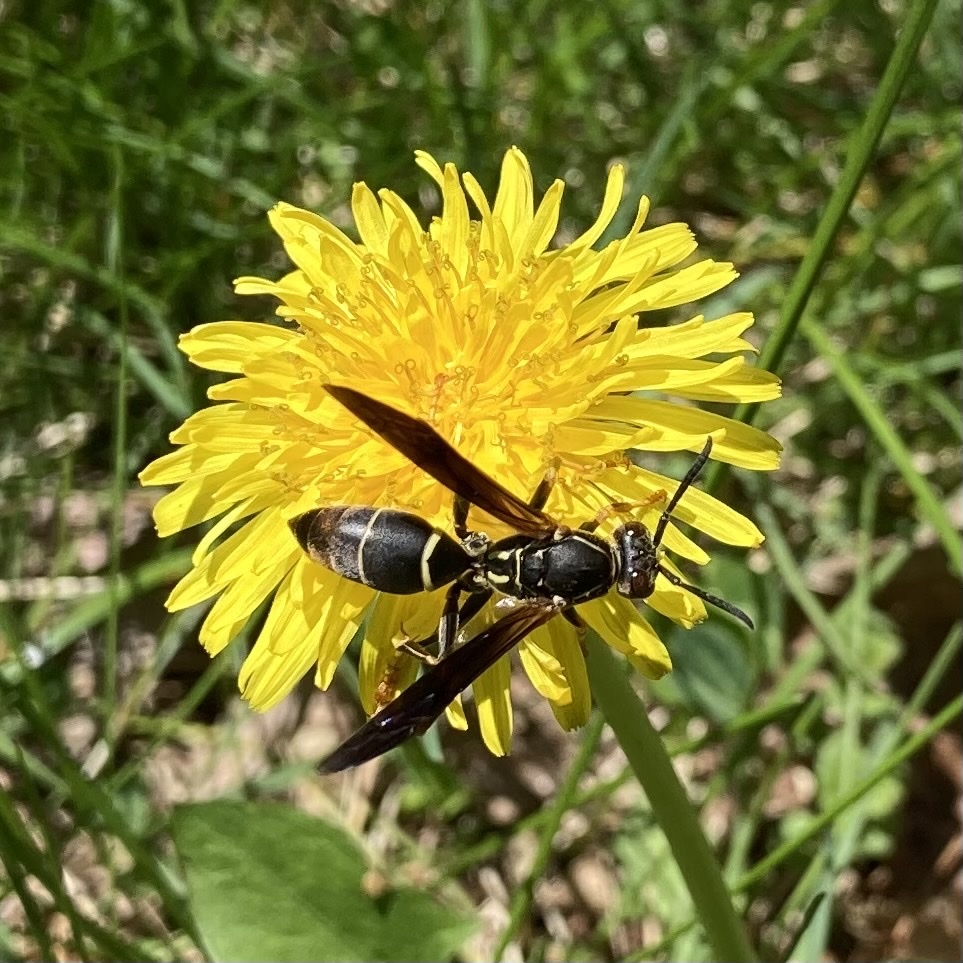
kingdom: Animalia
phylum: Arthropoda
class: Insecta
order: Hymenoptera
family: Eumenidae
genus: Polistes
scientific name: Polistes fuscatus
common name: Dark paper wasp
